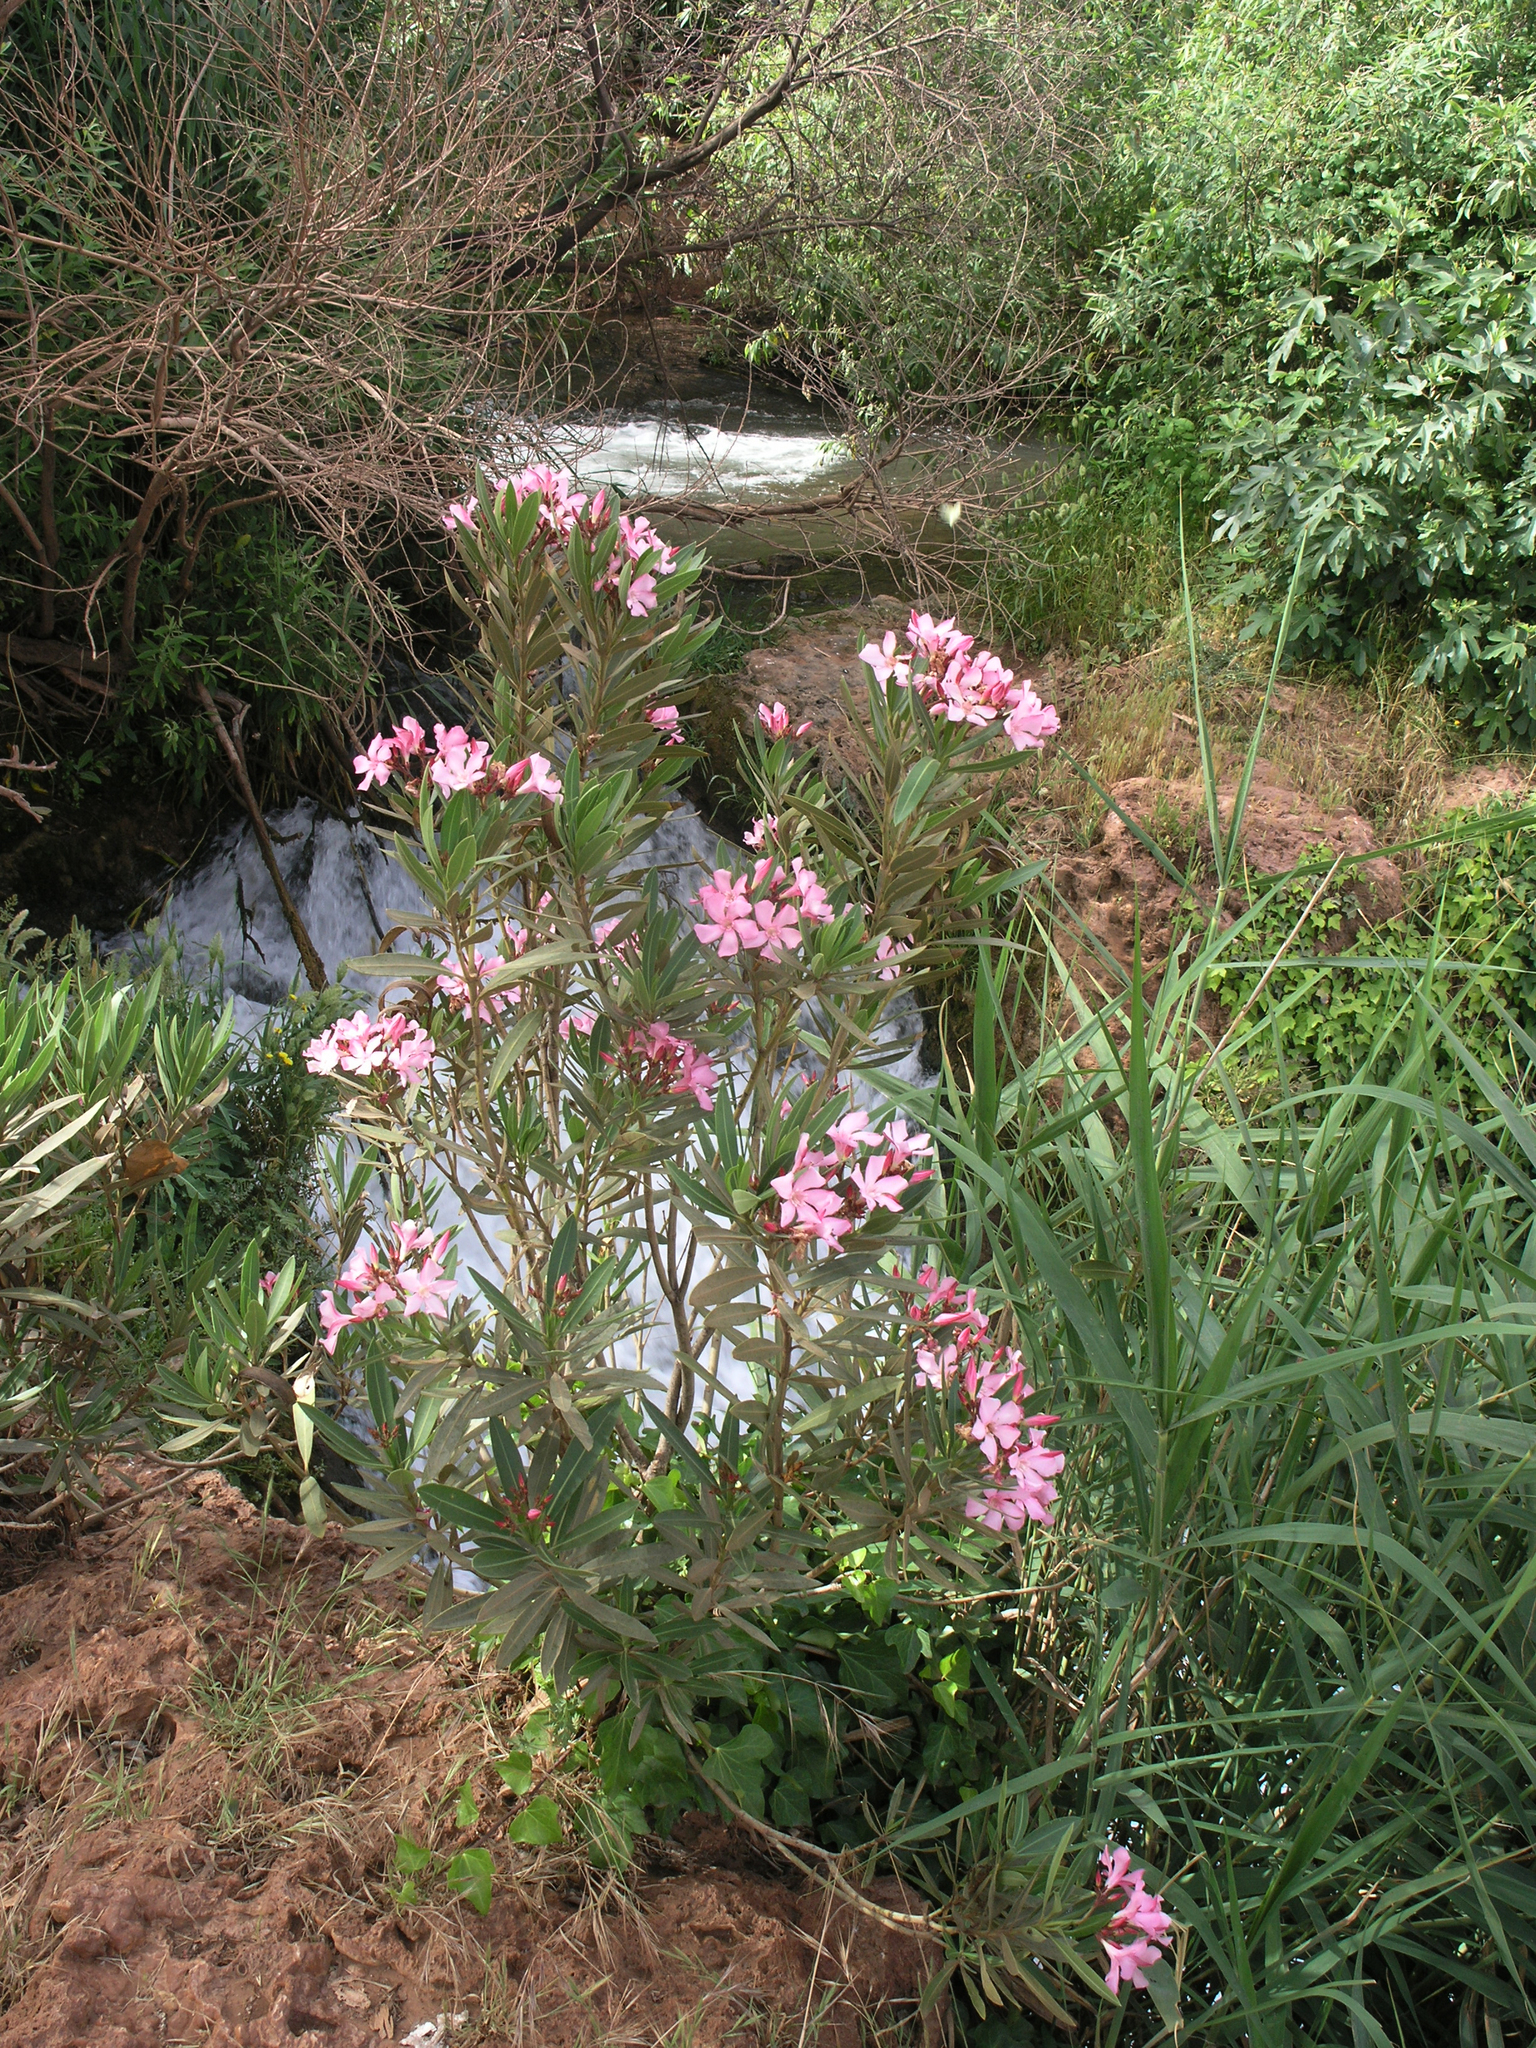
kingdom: Plantae
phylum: Tracheophyta
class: Magnoliopsida
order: Gentianales
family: Apocynaceae
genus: Nerium
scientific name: Nerium oleander
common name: Oleander
